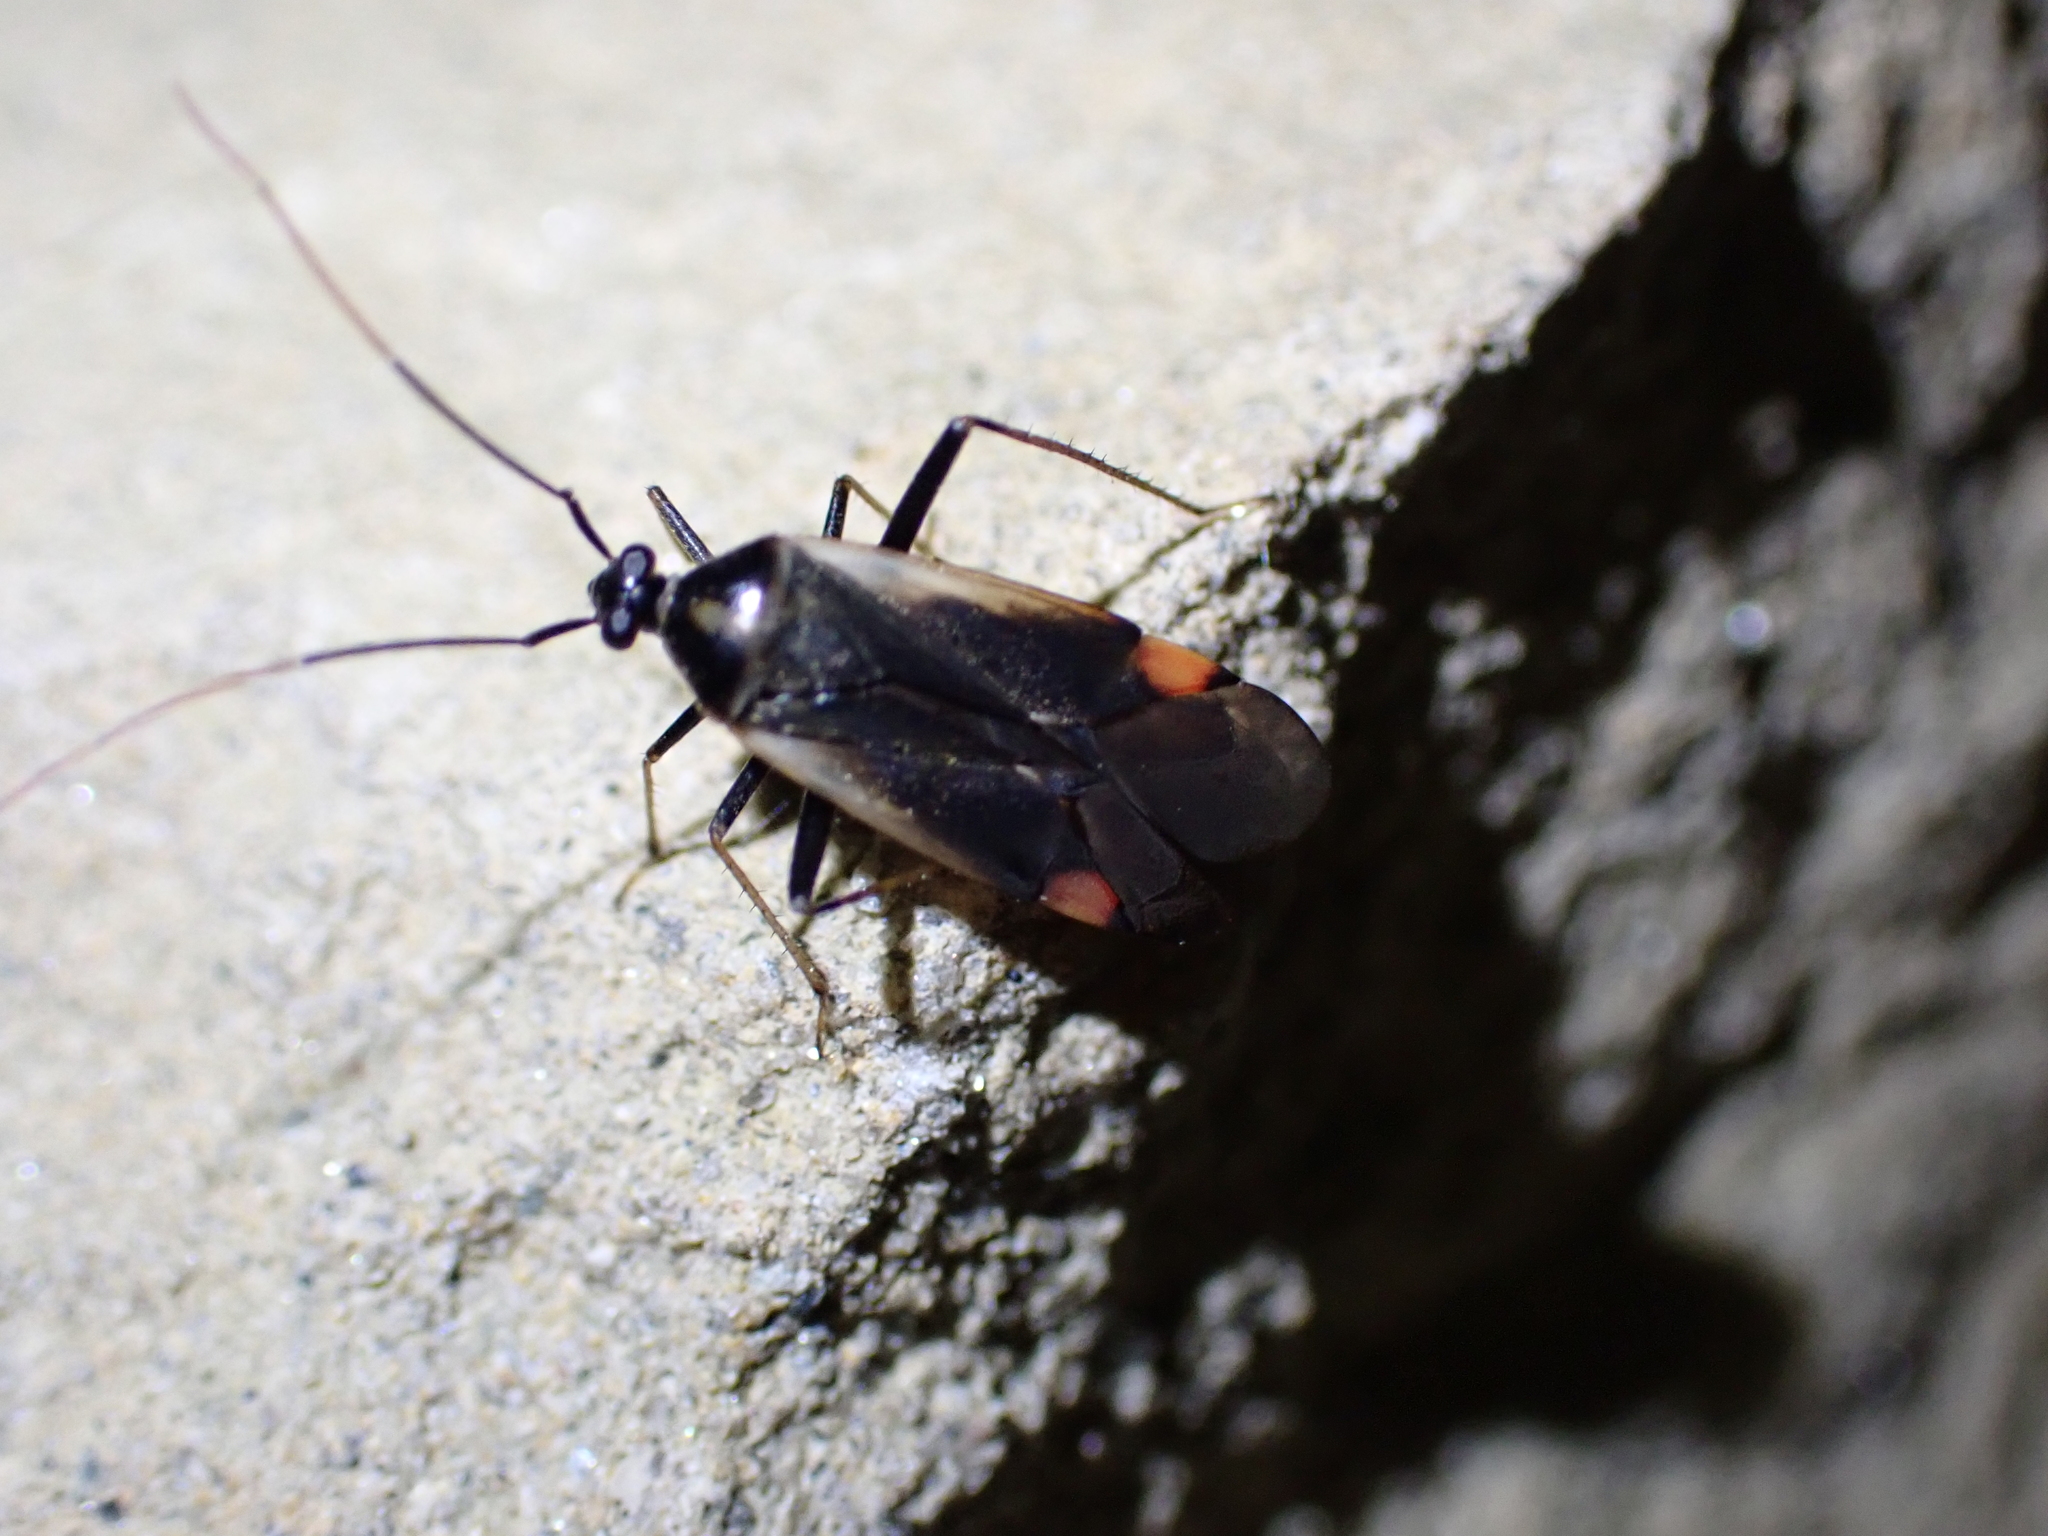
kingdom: Animalia
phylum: Arthropoda
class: Insecta
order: Hemiptera
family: Miridae
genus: Adelphocoris
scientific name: Adelphocoris seticornis
